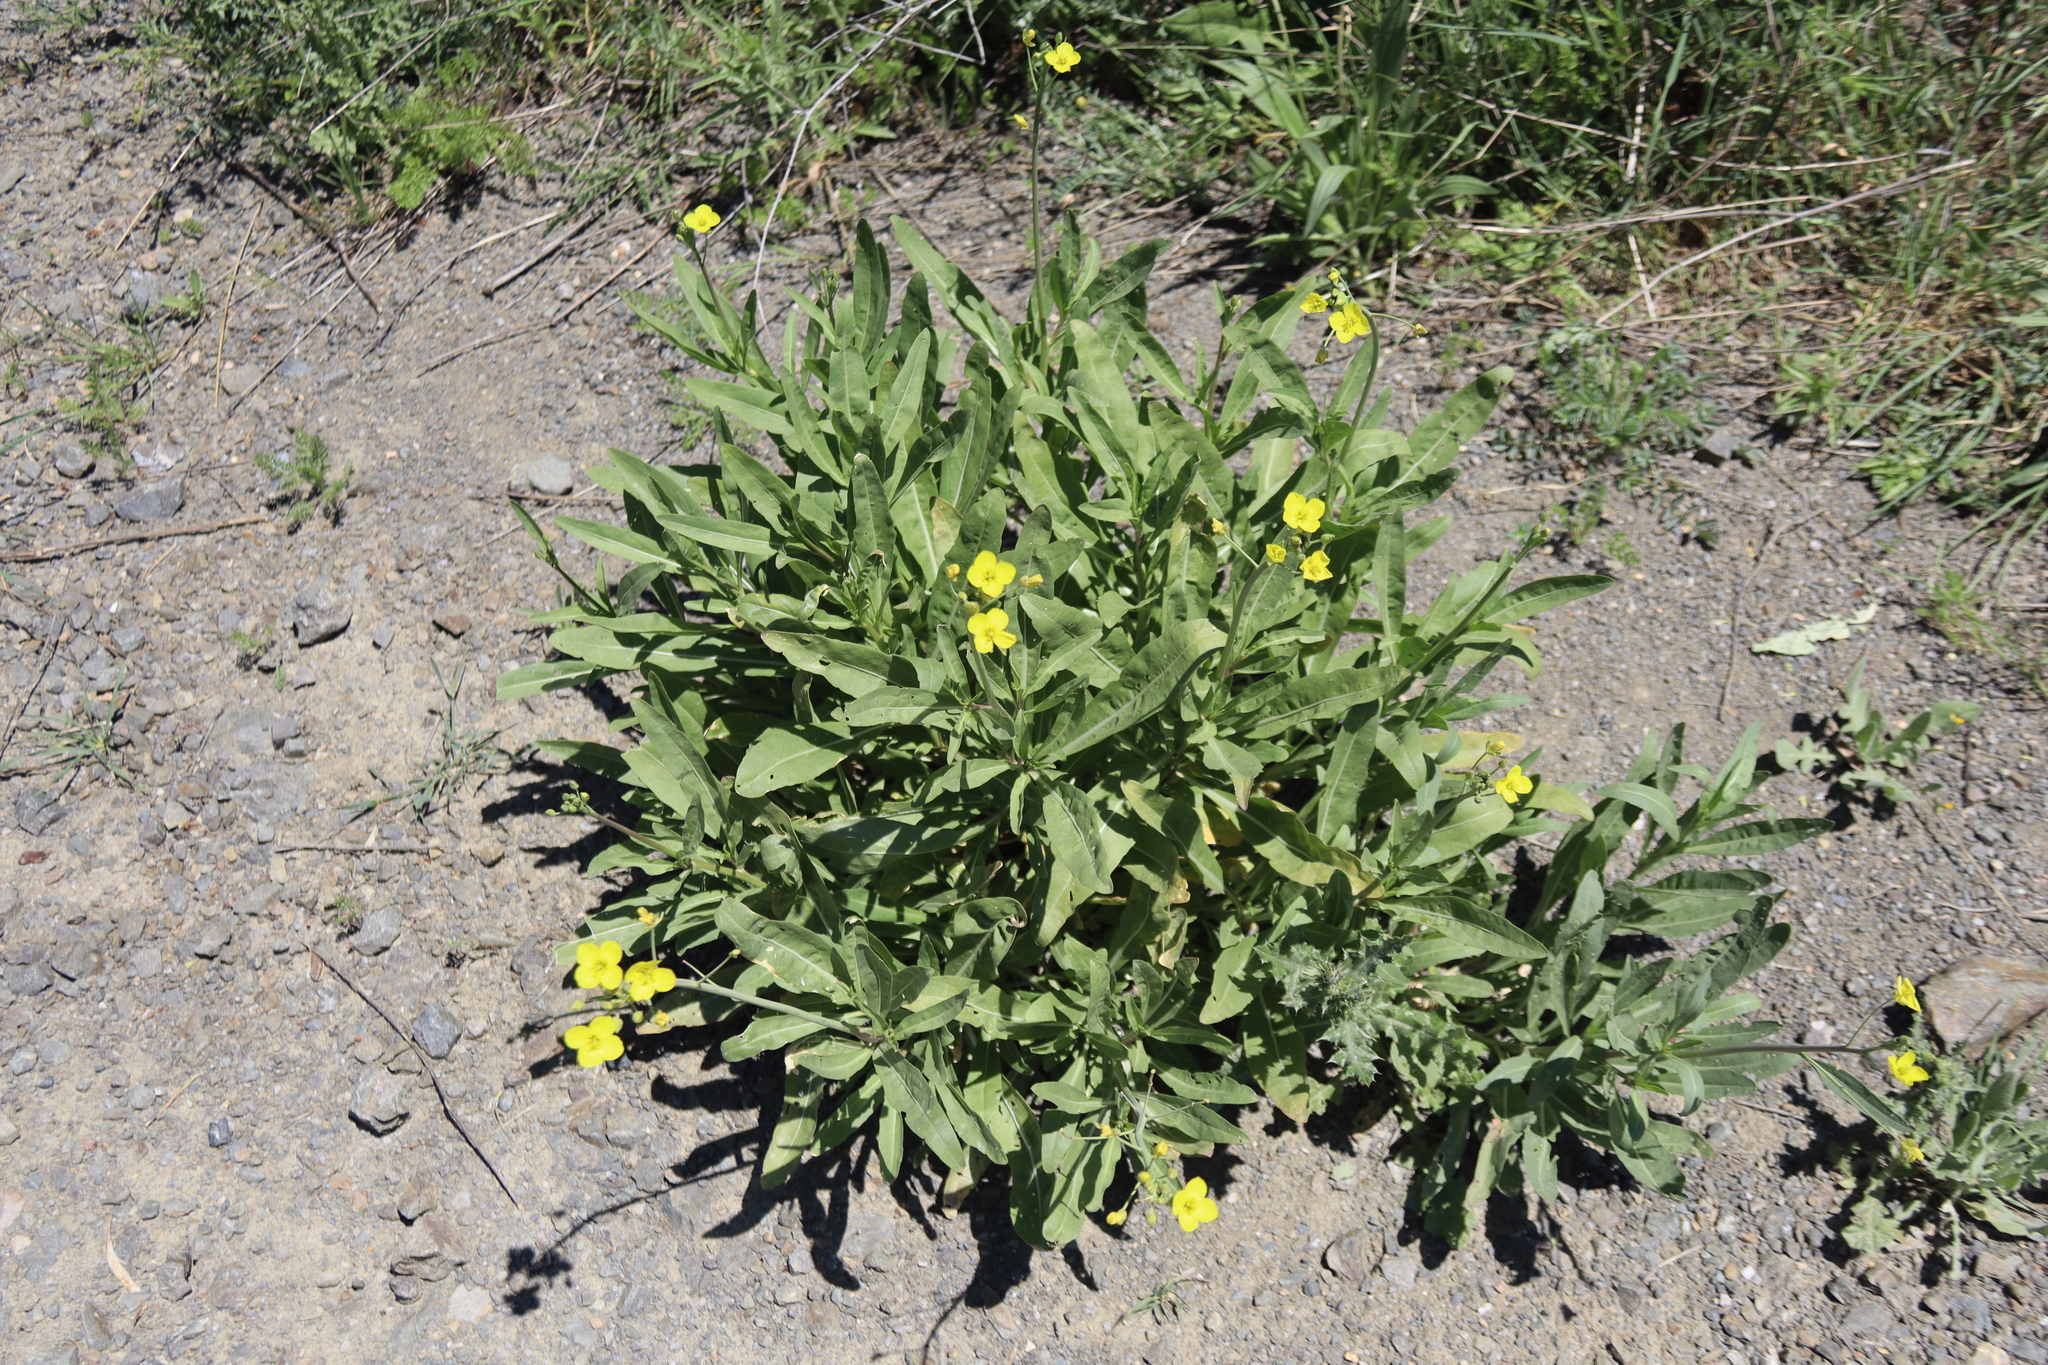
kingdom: Plantae
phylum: Tracheophyta
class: Magnoliopsida
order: Brassicales
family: Brassicaceae
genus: Diplotaxis
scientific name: Diplotaxis tenuifolia
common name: Perennial wall-rocket
